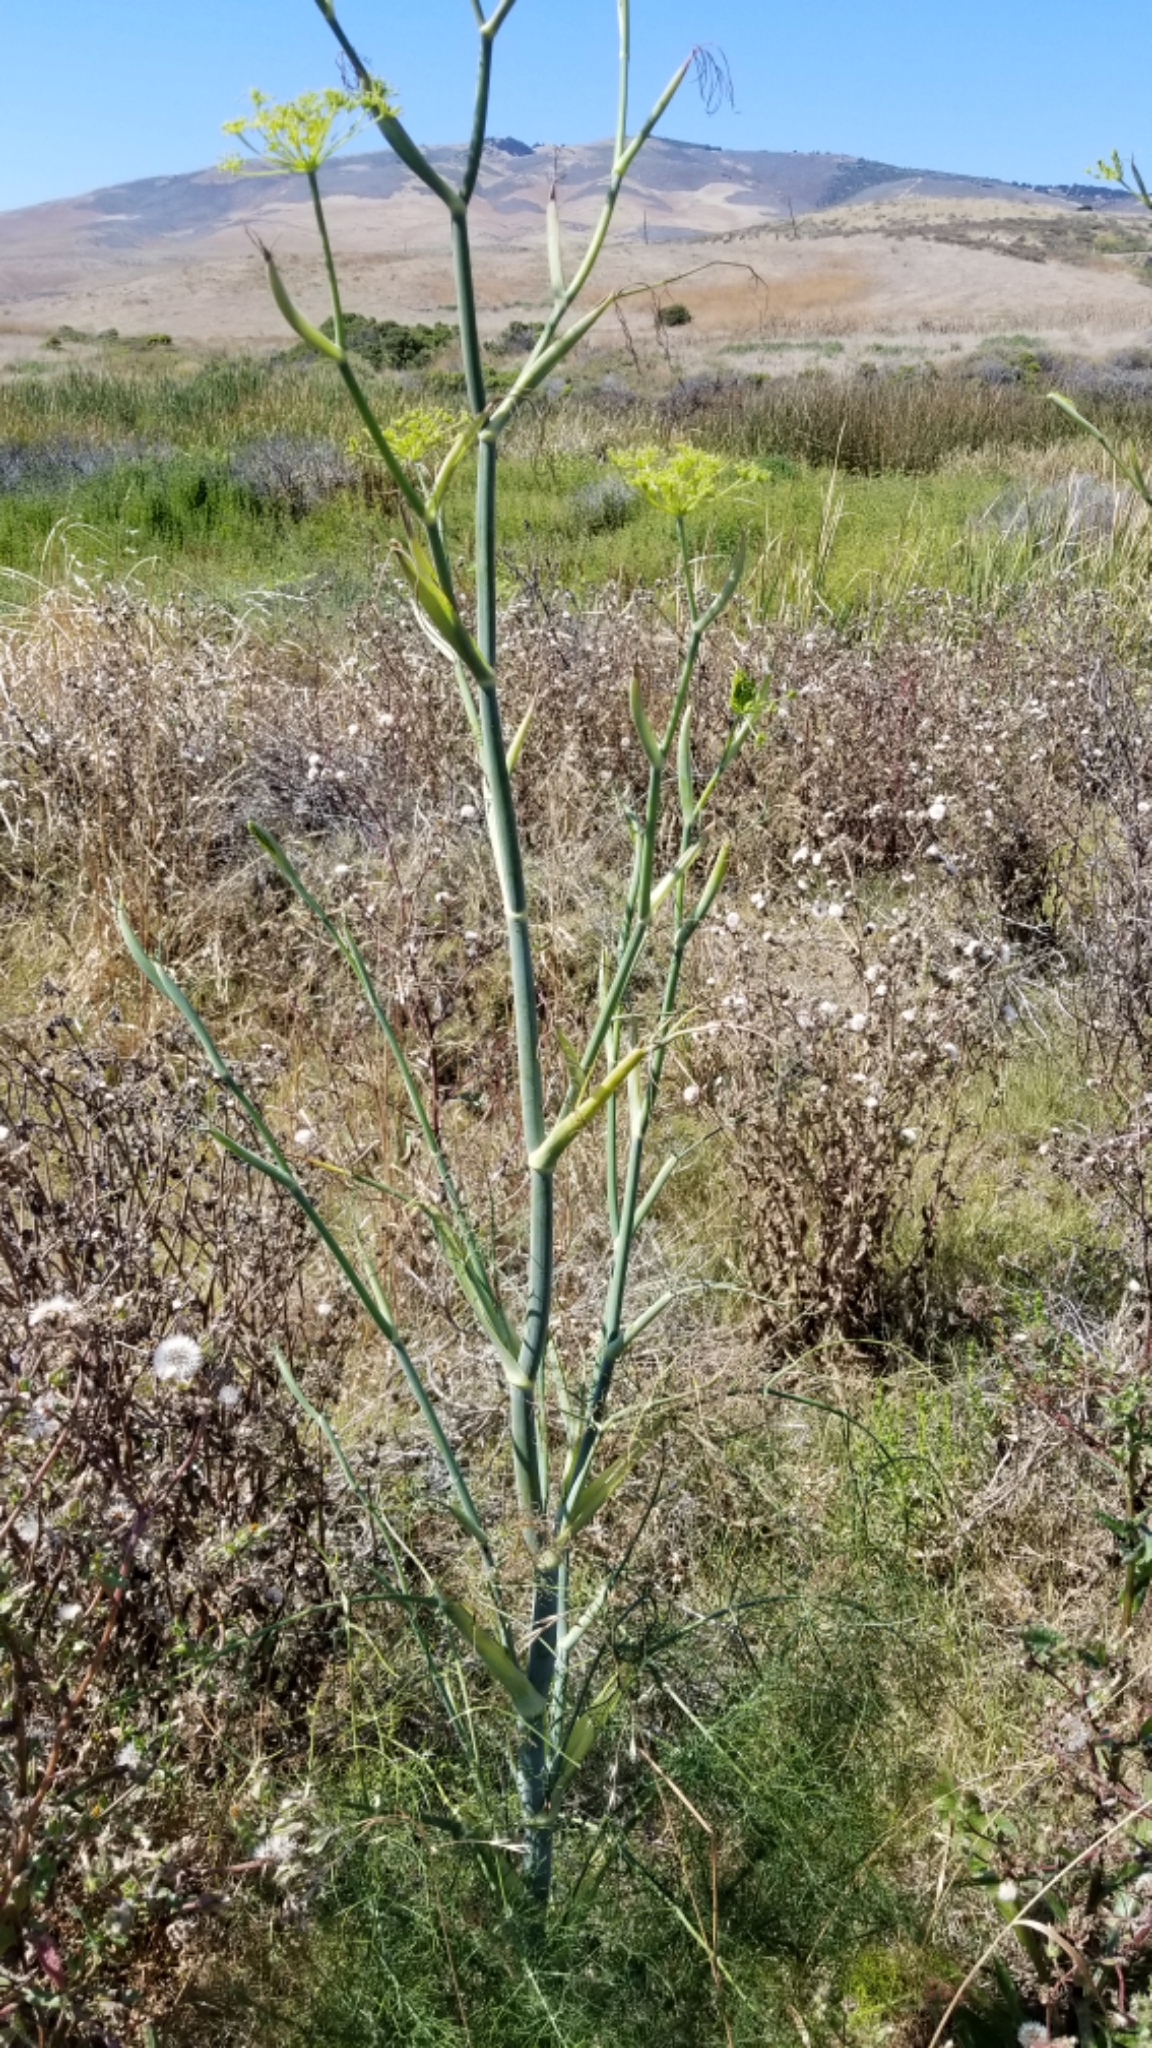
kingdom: Plantae
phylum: Tracheophyta
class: Magnoliopsida
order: Apiales
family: Apiaceae
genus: Foeniculum
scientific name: Foeniculum vulgare
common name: Fennel
